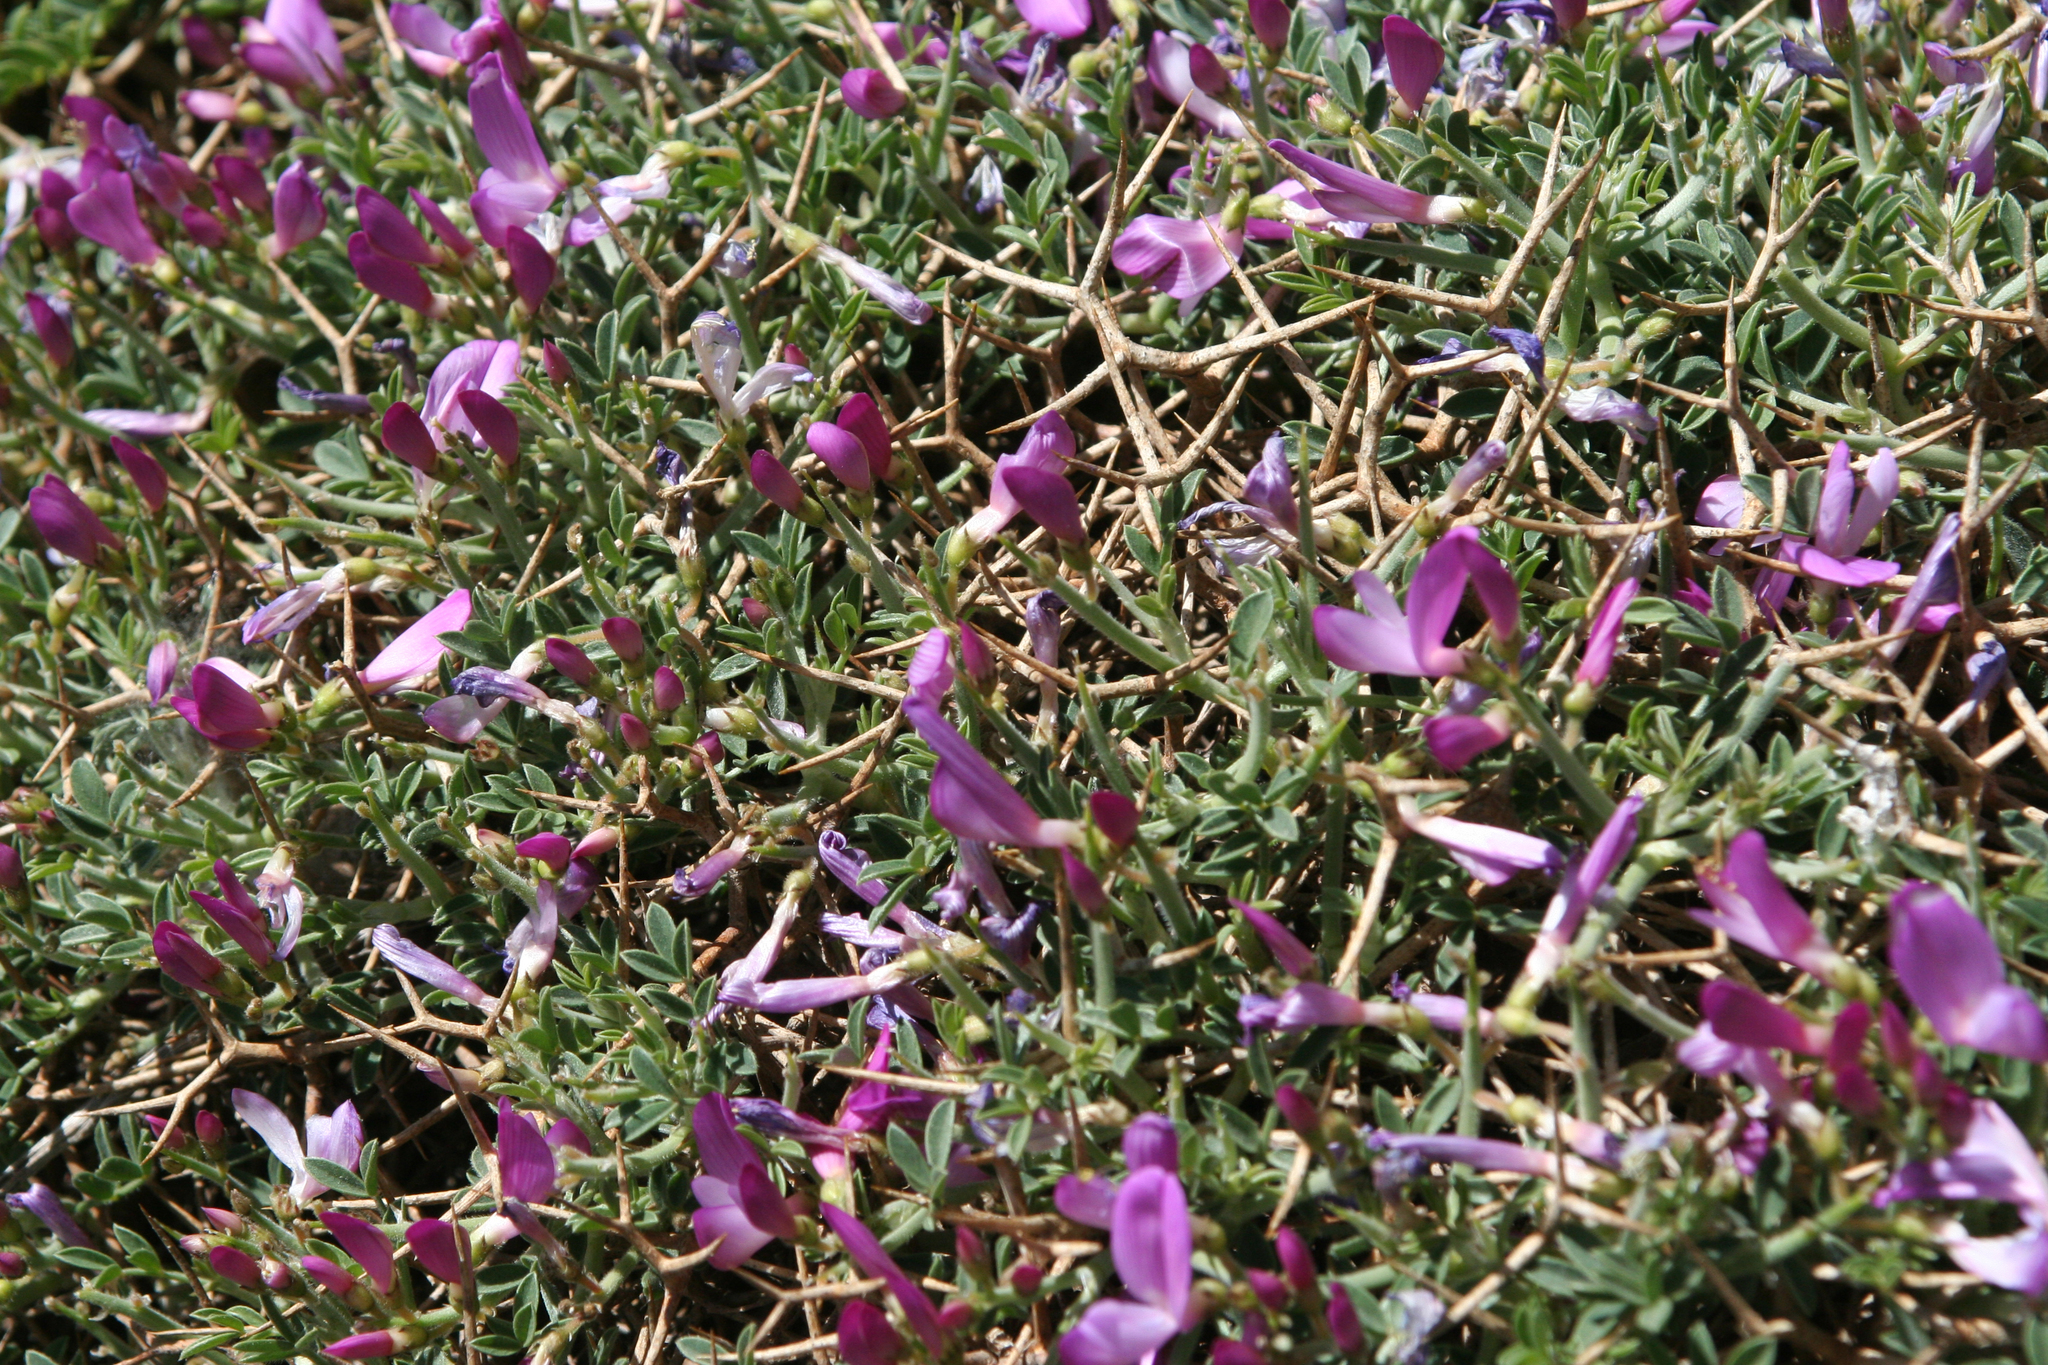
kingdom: Plantae
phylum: Tracheophyta
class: Magnoliopsida
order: Fabales
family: Fabaceae
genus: Onobrychis
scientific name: Onobrychis cornuta
